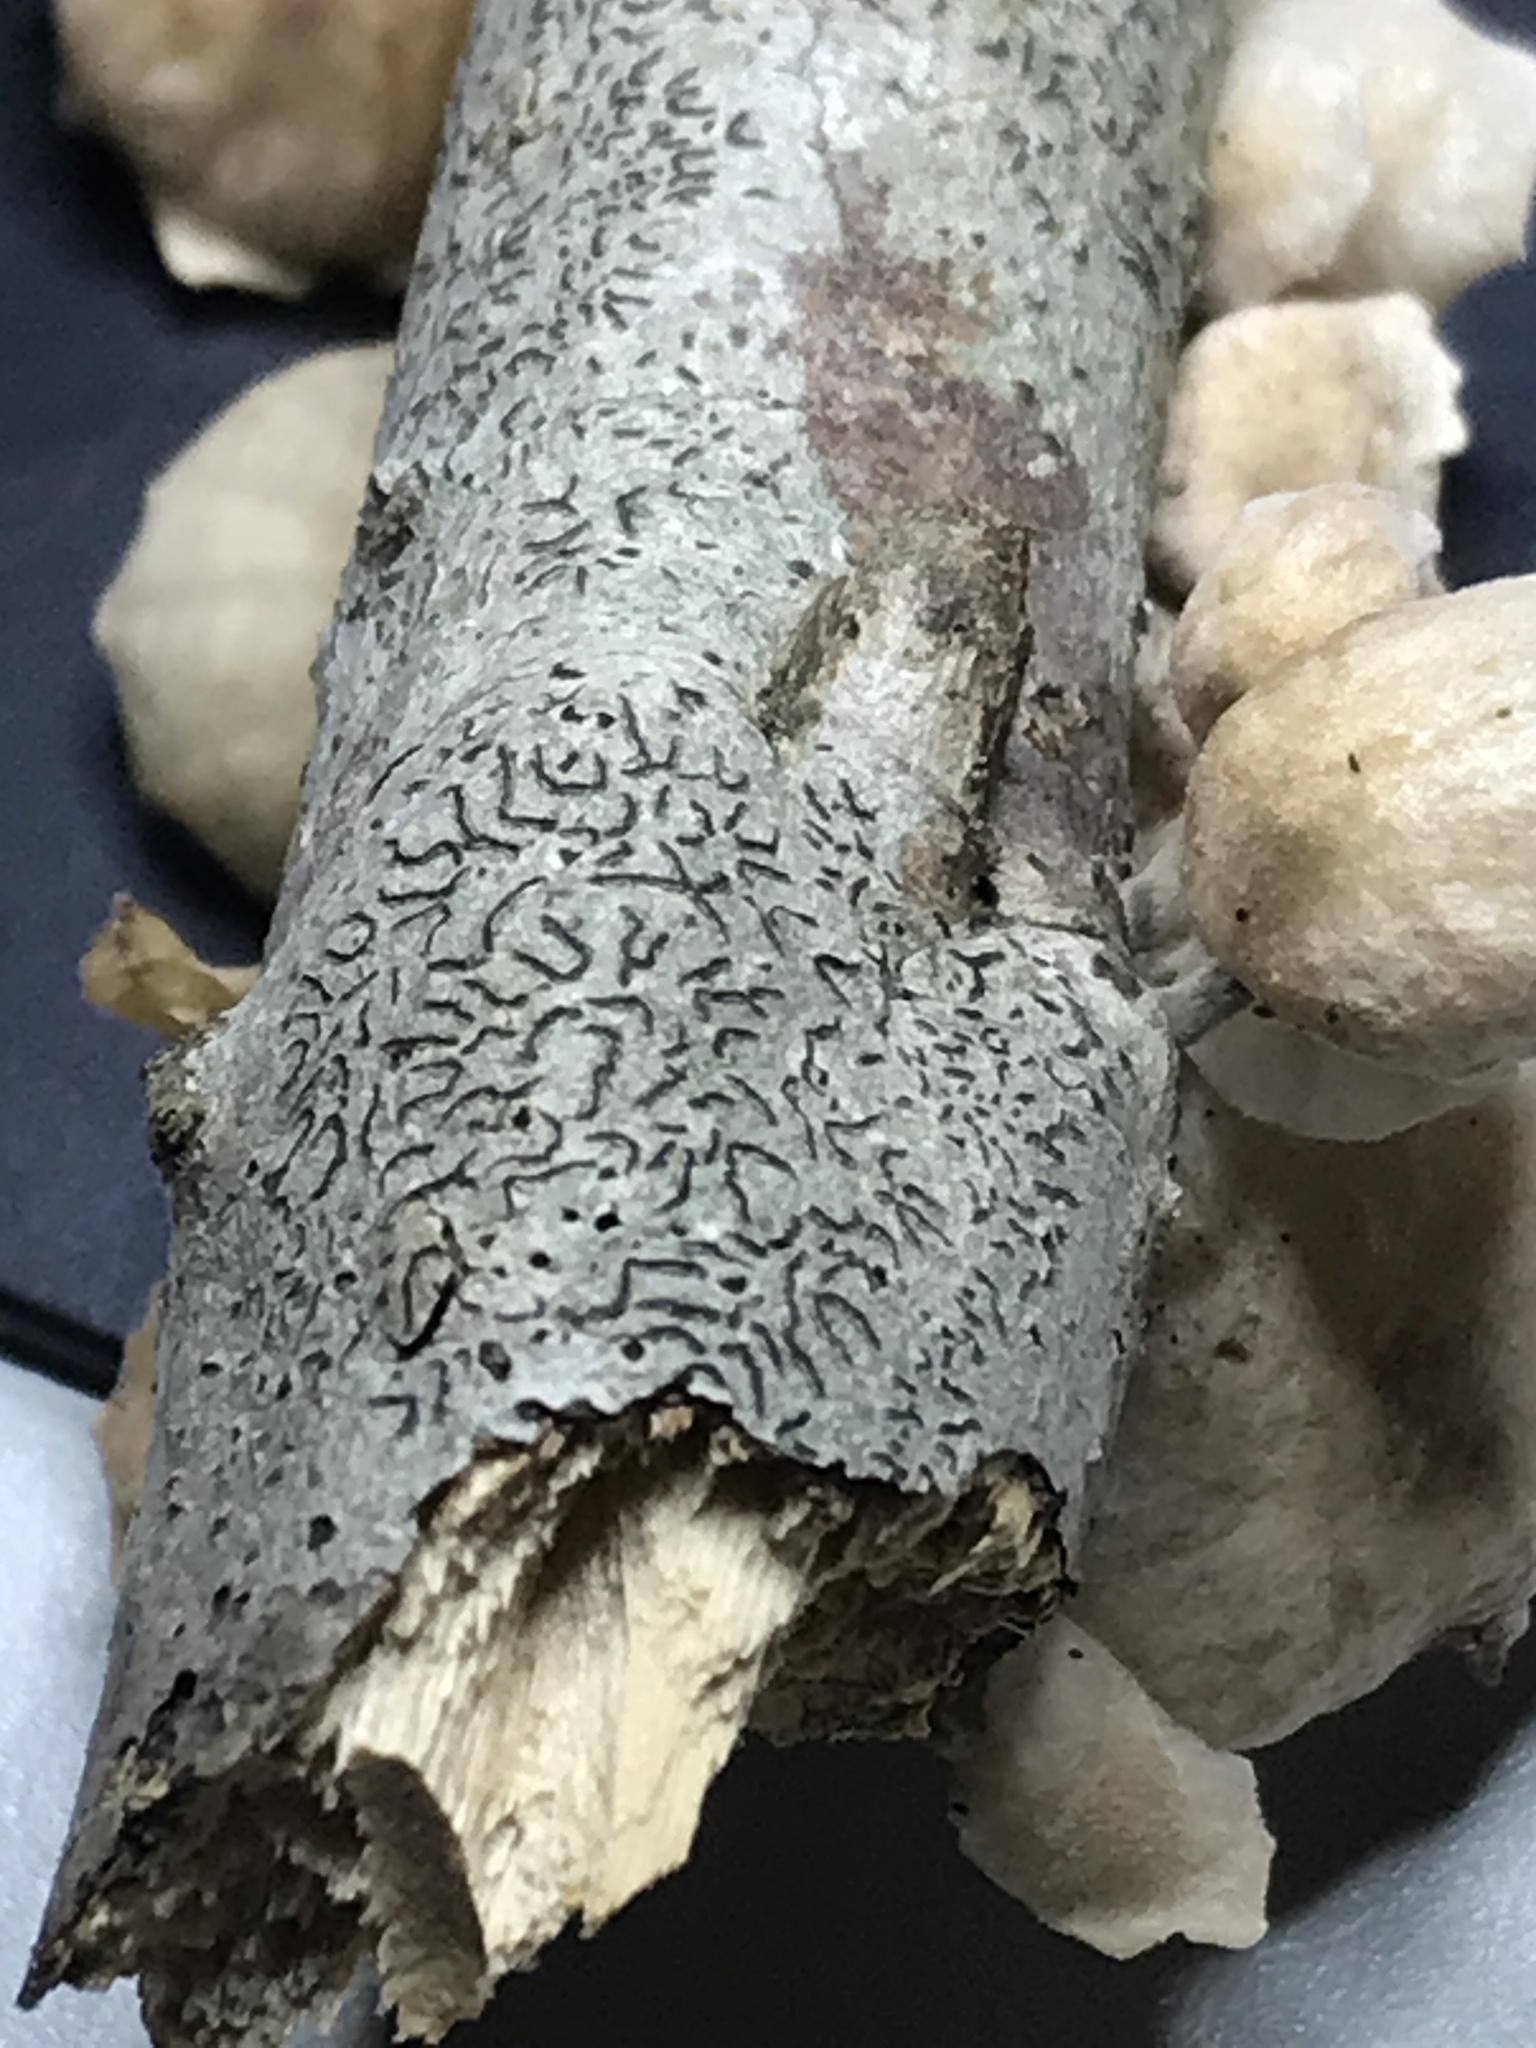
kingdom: Fungi
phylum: Ascomycota
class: Lecanoromycetes
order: Ostropales
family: Graphidaceae
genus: Graphis
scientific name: Graphis scripta
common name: Script lichen
